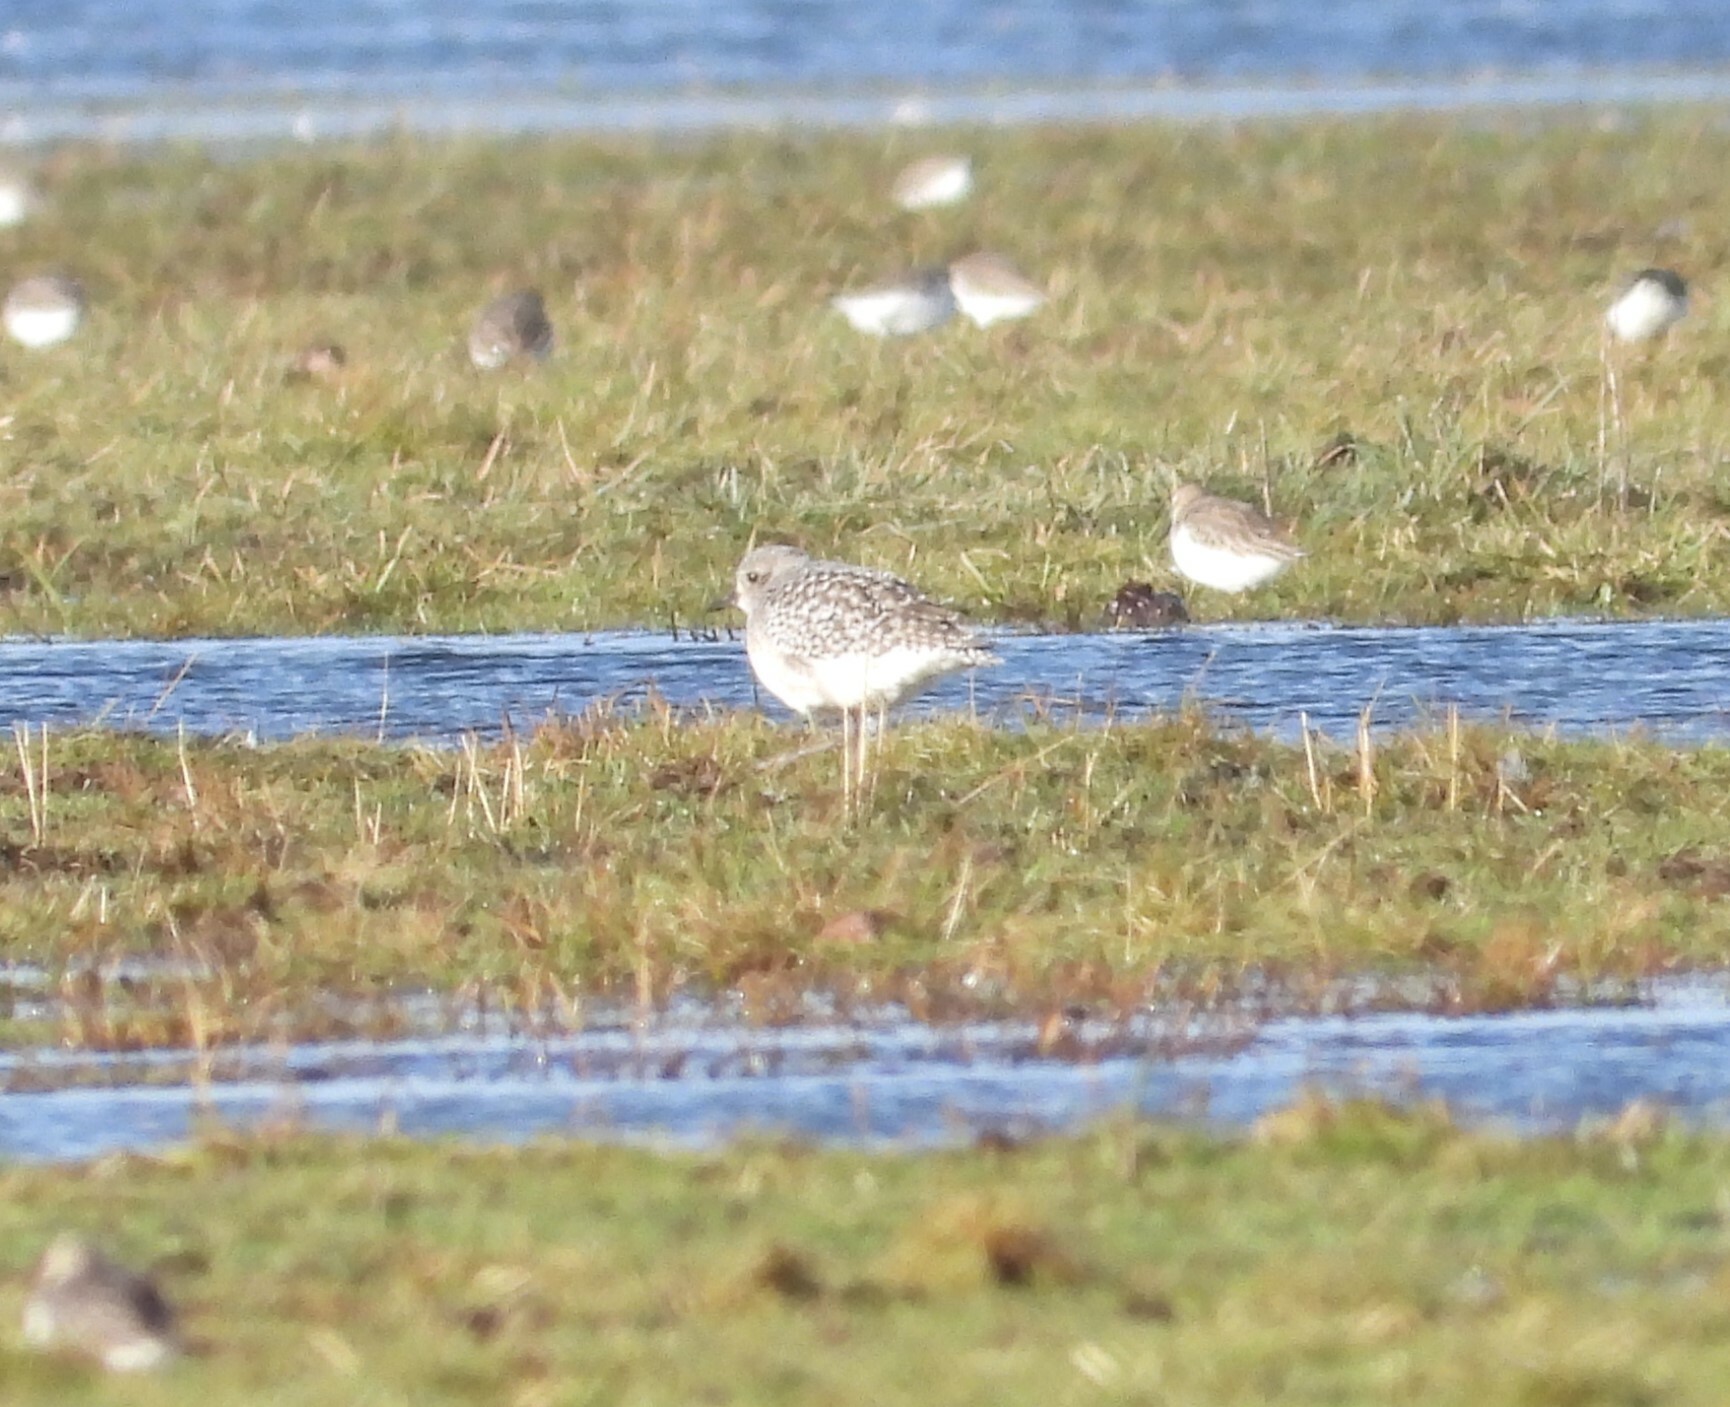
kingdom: Animalia
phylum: Chordata
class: Aves
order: Charadriiformes
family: Charadriidae
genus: Pluvialis
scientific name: Pluvialis squatarola
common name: Grey plover
